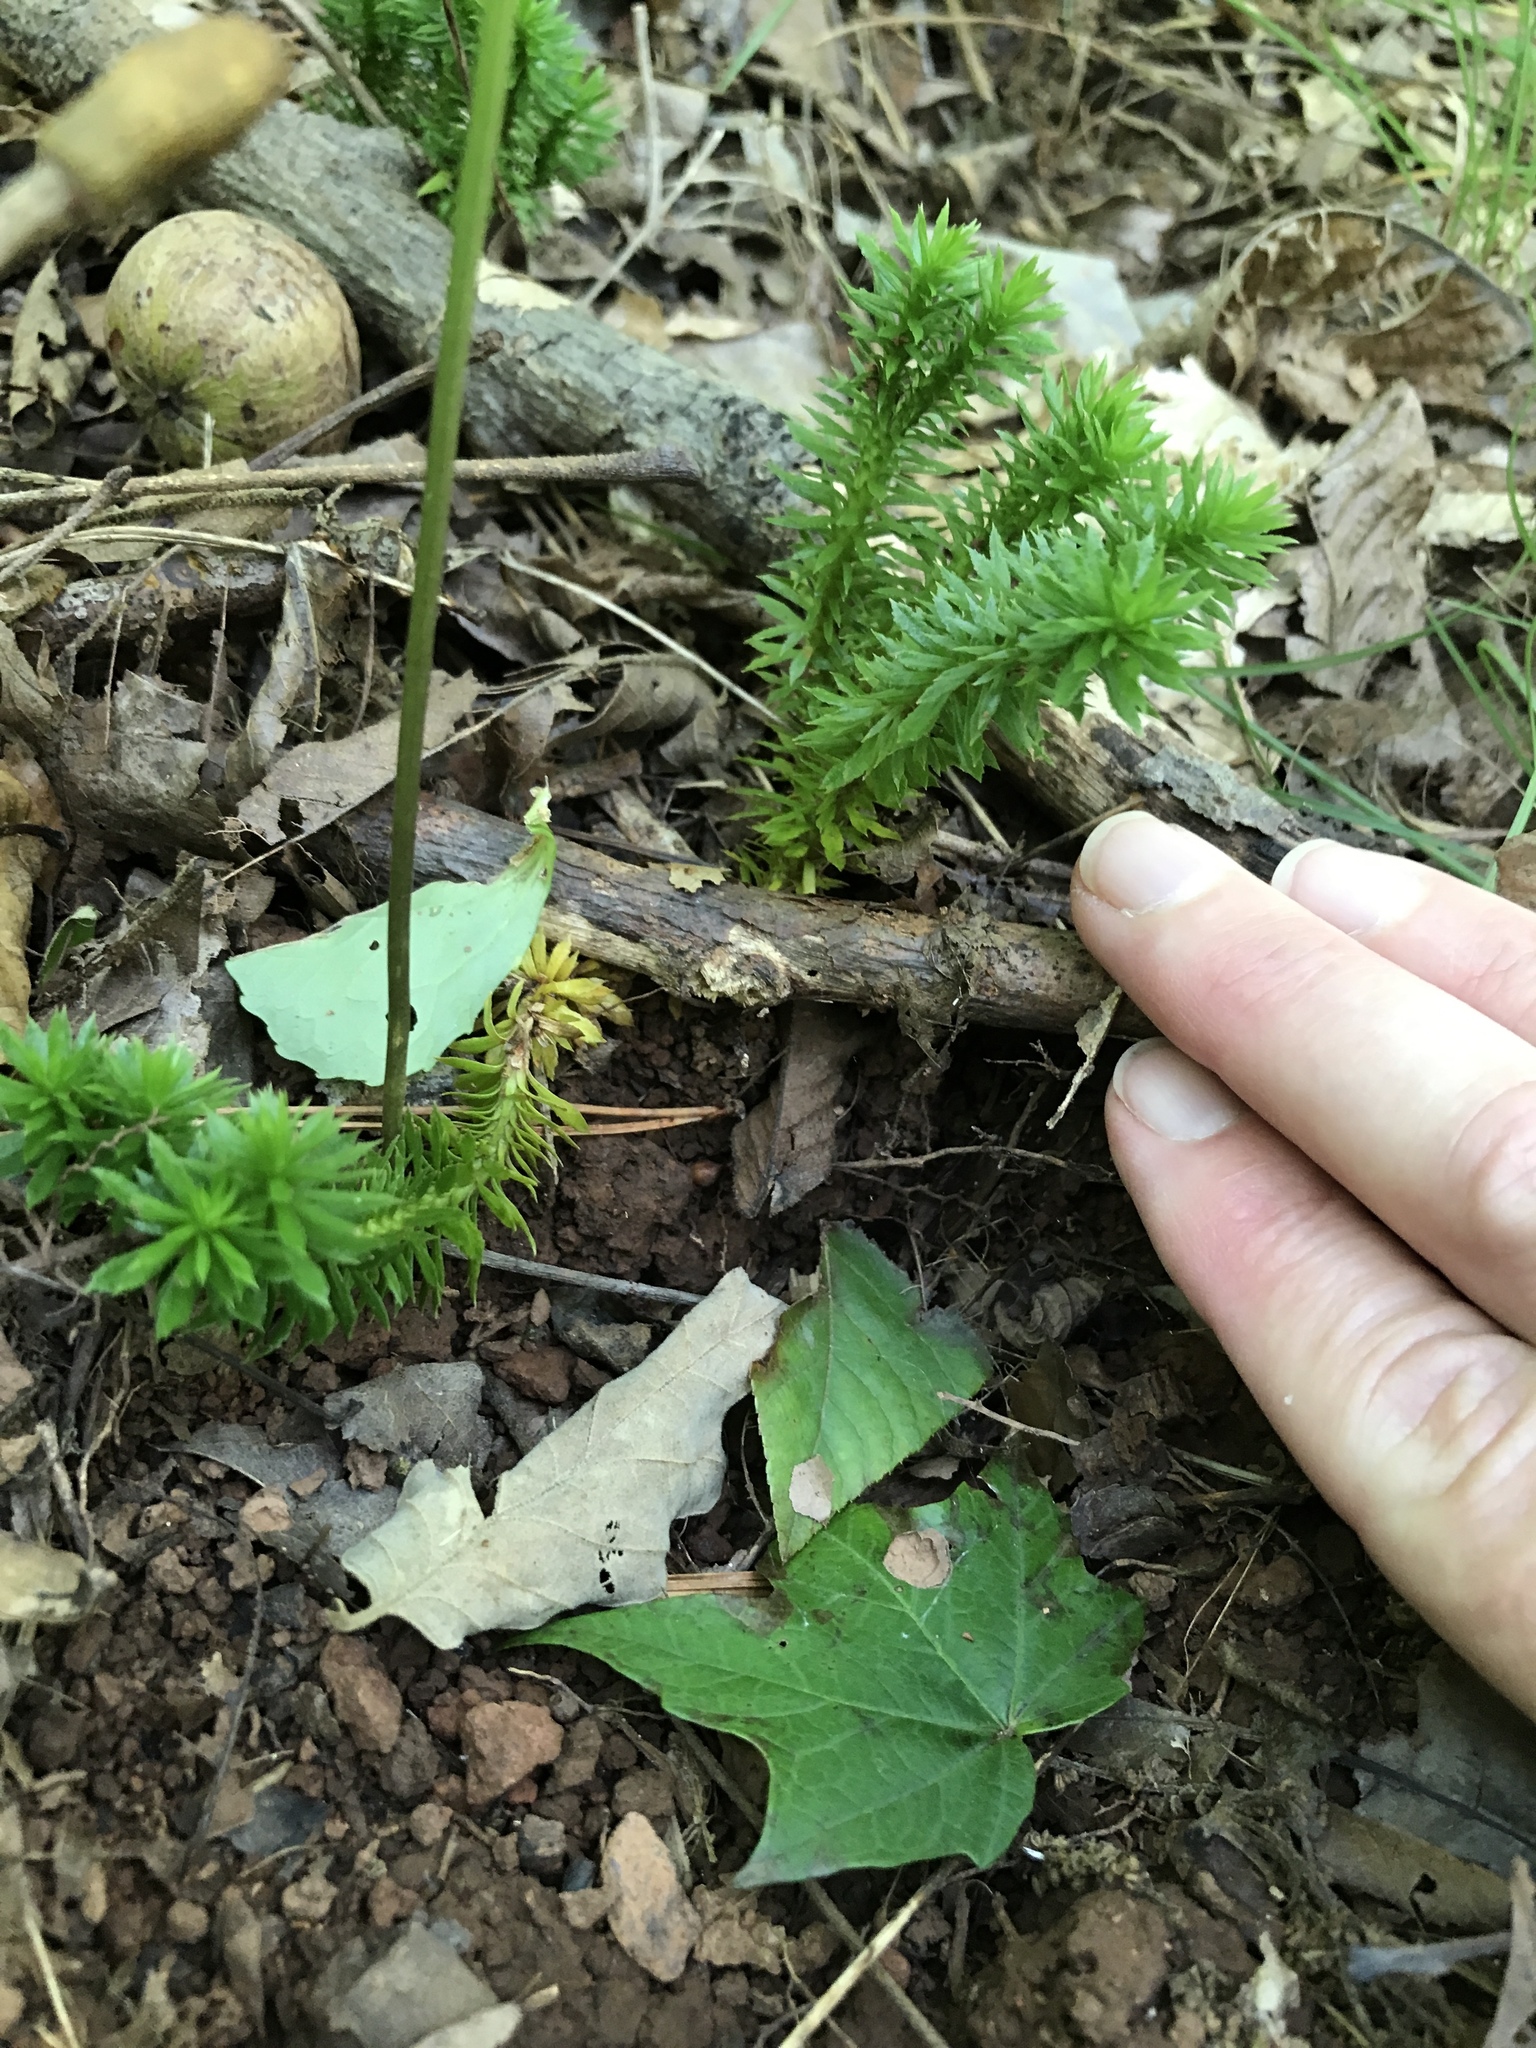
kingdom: Plantae
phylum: Tracheophyta
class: Lycopodiopsida
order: Lycopodiales
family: Lycopodiaceae
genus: Huperzia
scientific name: Huperzia lucidula
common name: Shining clubmoss
